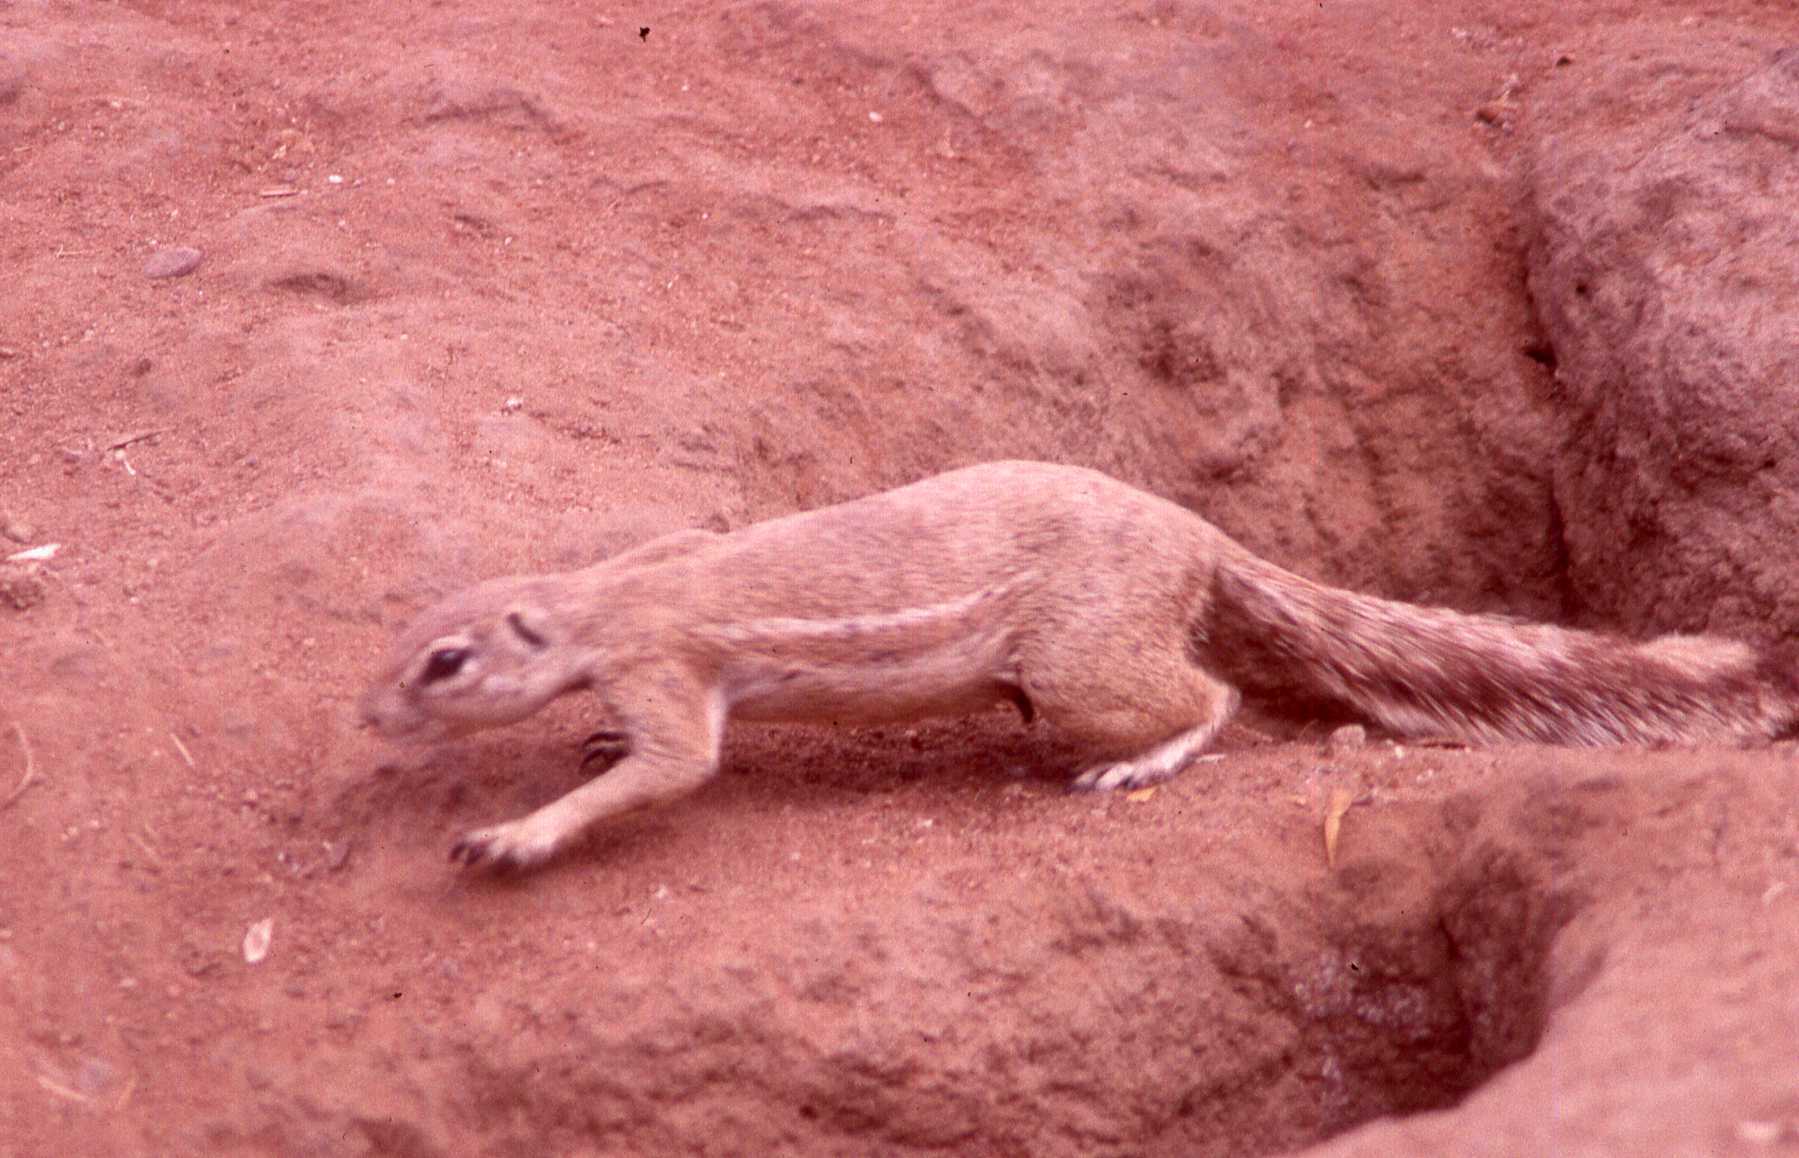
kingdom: Animalia
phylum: Chordata
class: Mammalia
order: Rodentia
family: Sciuridae
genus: Xerus
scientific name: Xerus inauris
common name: South african ground squirrel
